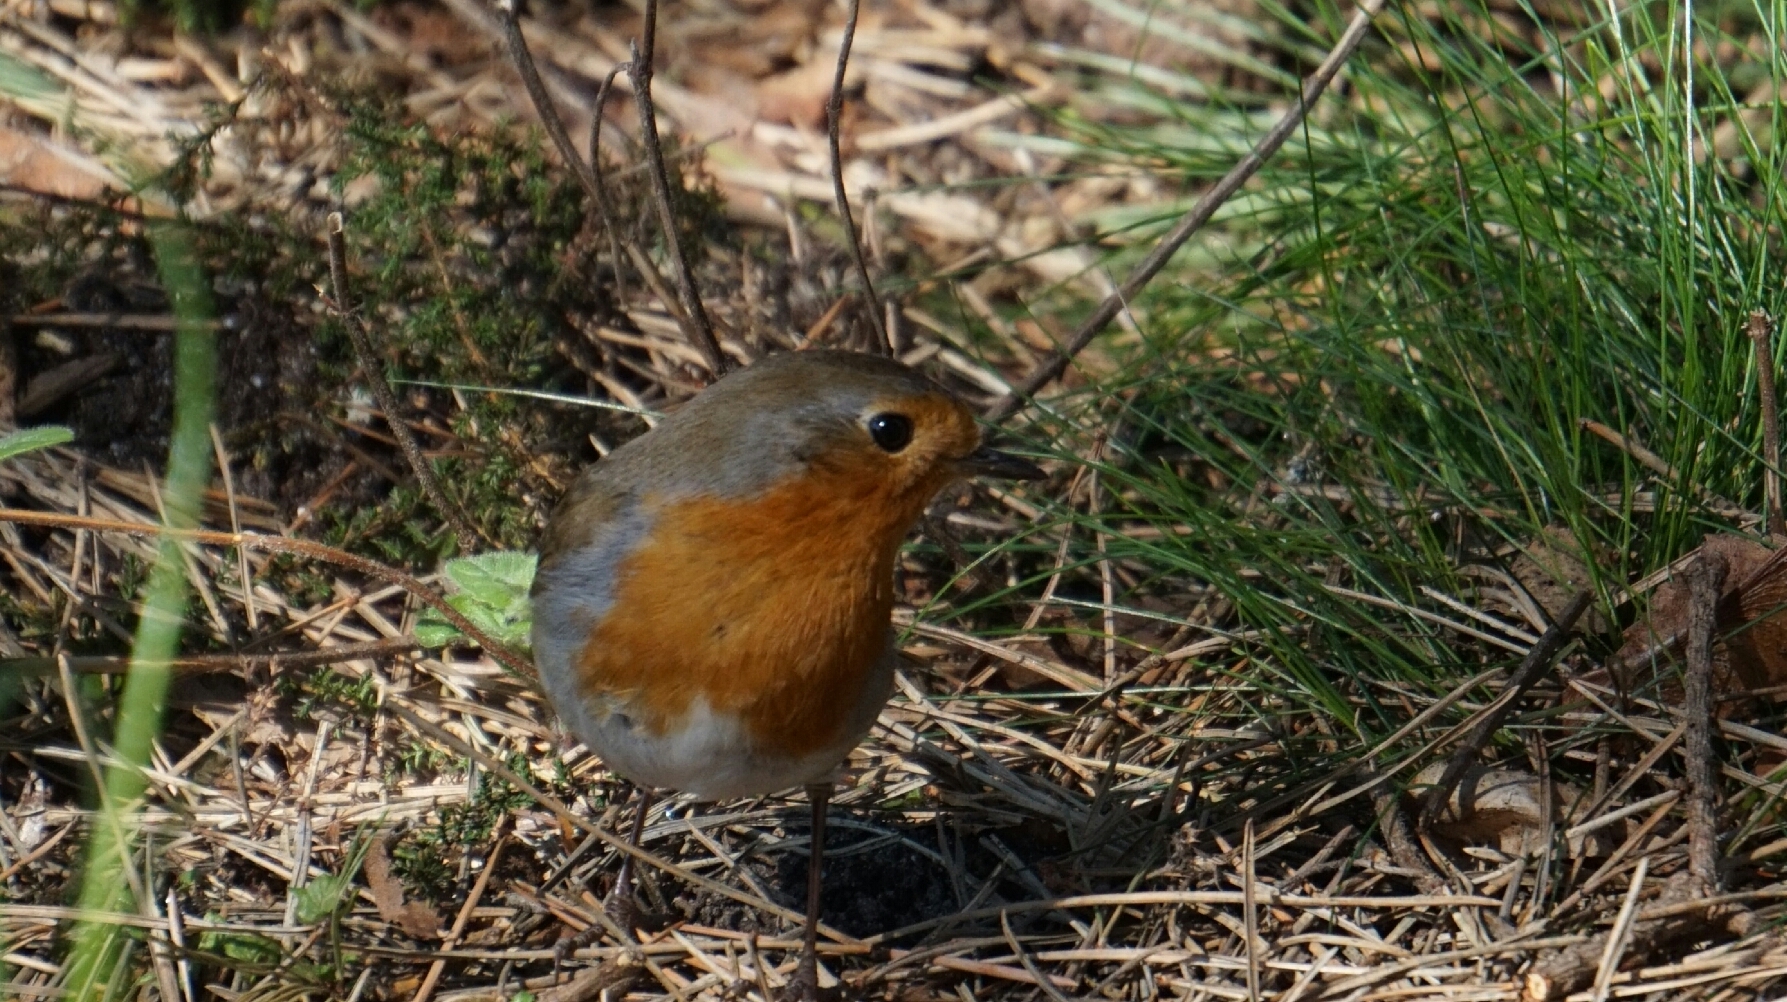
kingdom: Animalia
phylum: Chordata
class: Aves
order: Passeriformes
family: Muscicapidae
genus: Erithacus
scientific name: Erithacus rubecula
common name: European robin
